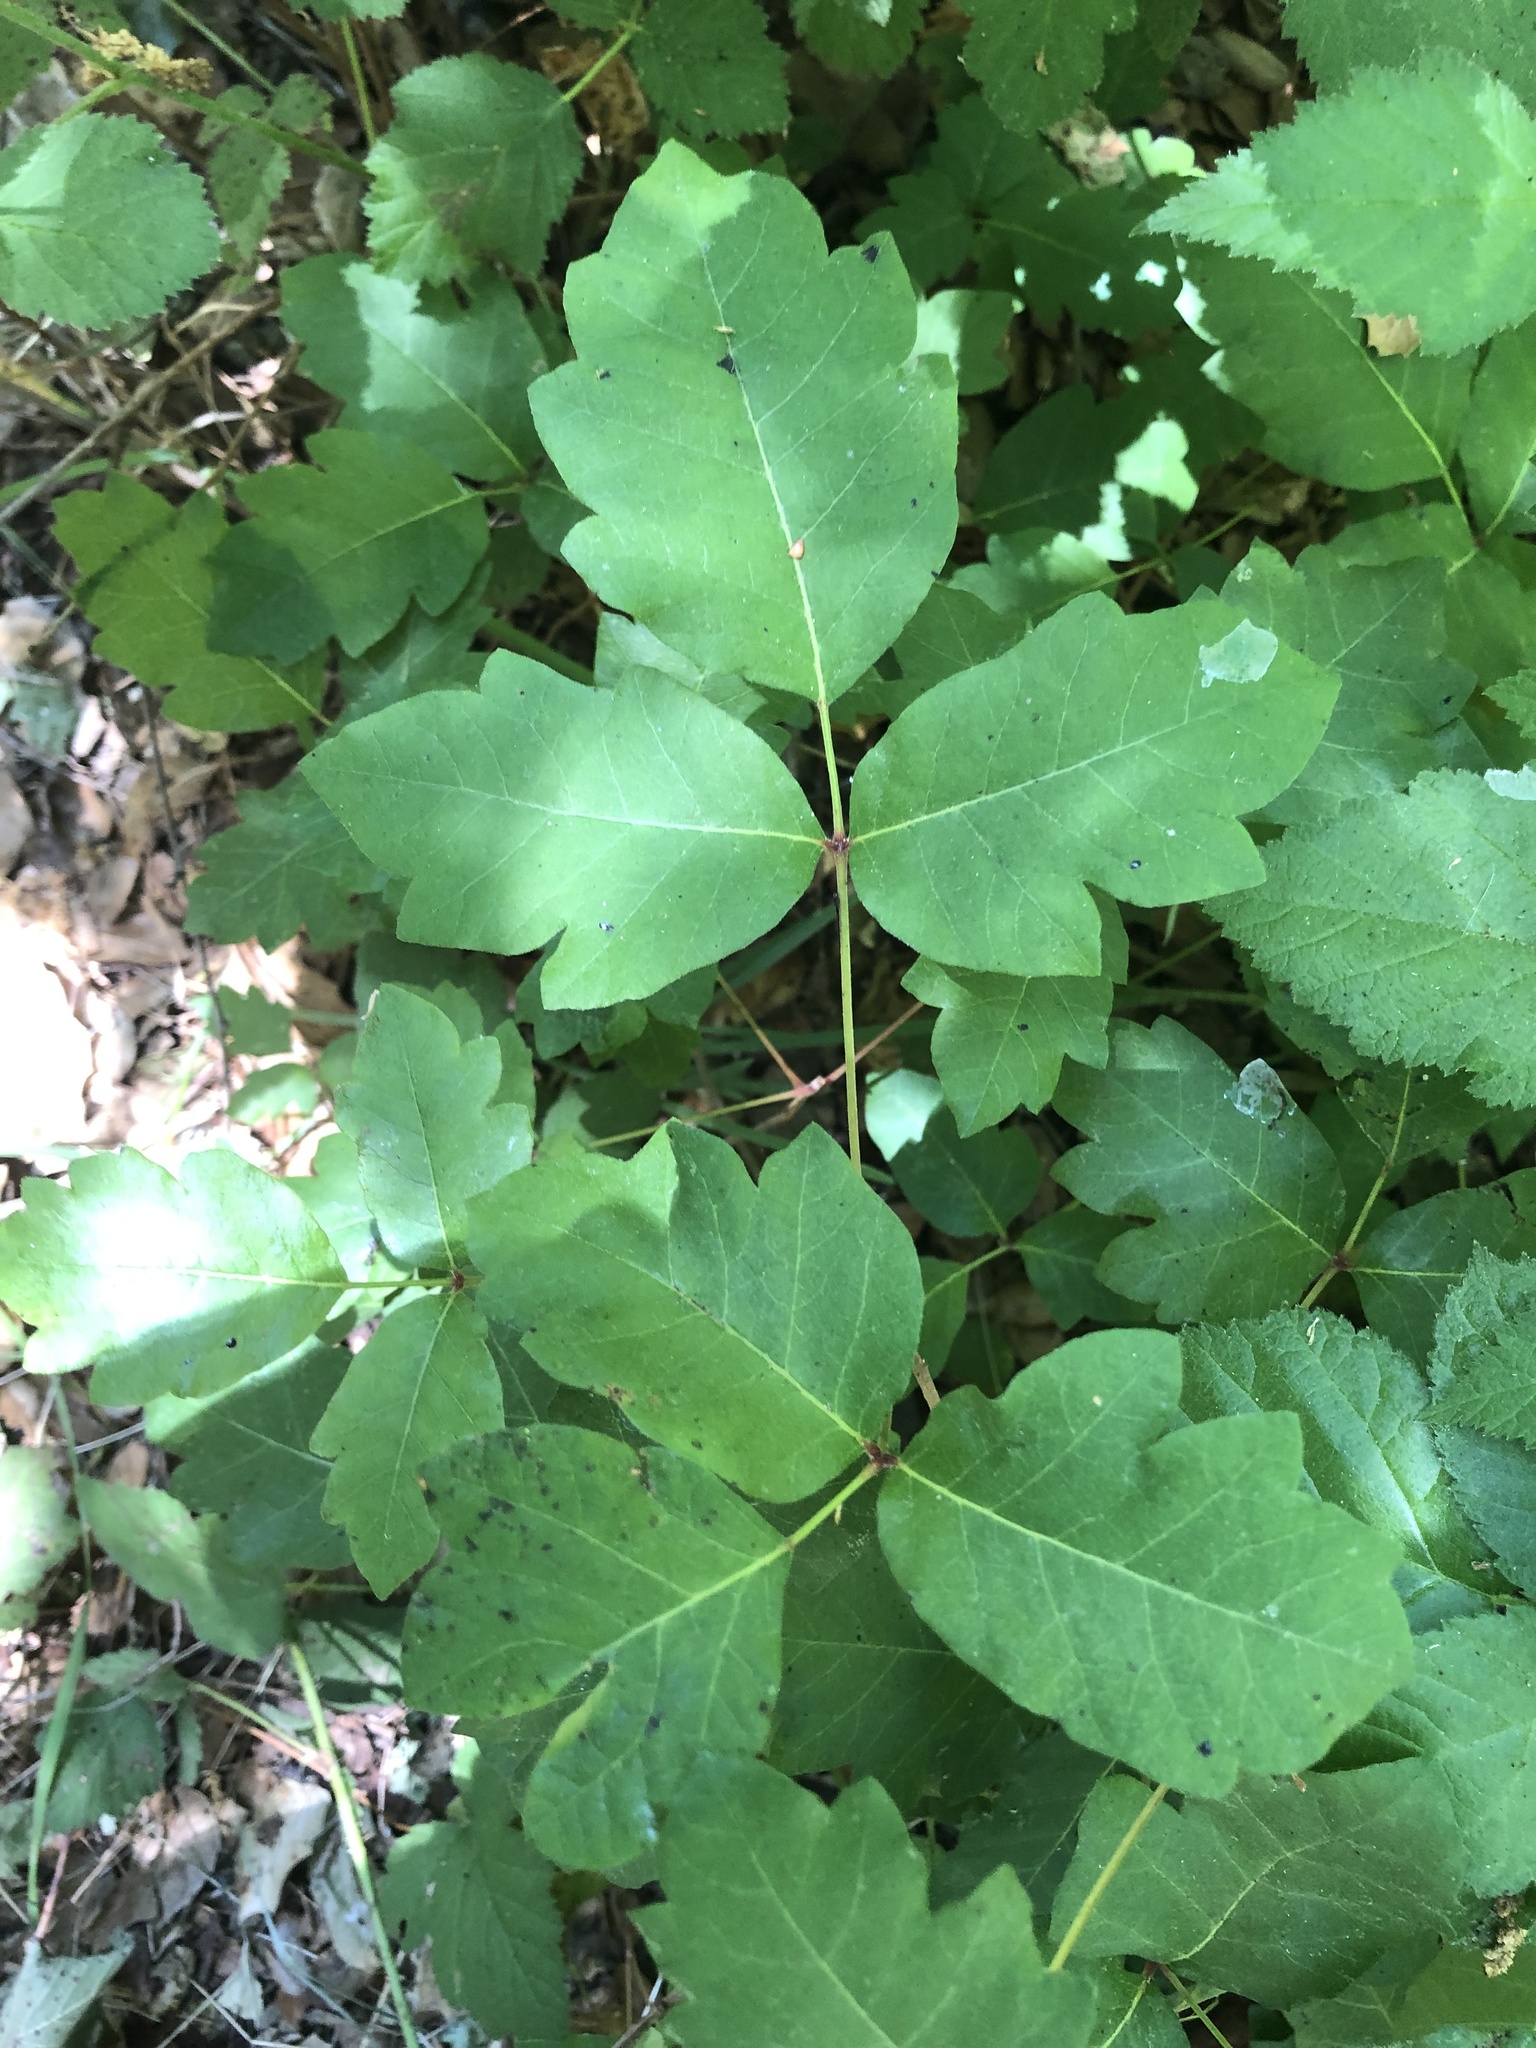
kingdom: Plantae
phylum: Tracheophyta
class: Magnoliopsida
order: Sapindales
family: Anacardiaceae
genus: Toxicodendron
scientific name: Toxicodendron diversilobum
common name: Pacific poison-oak
